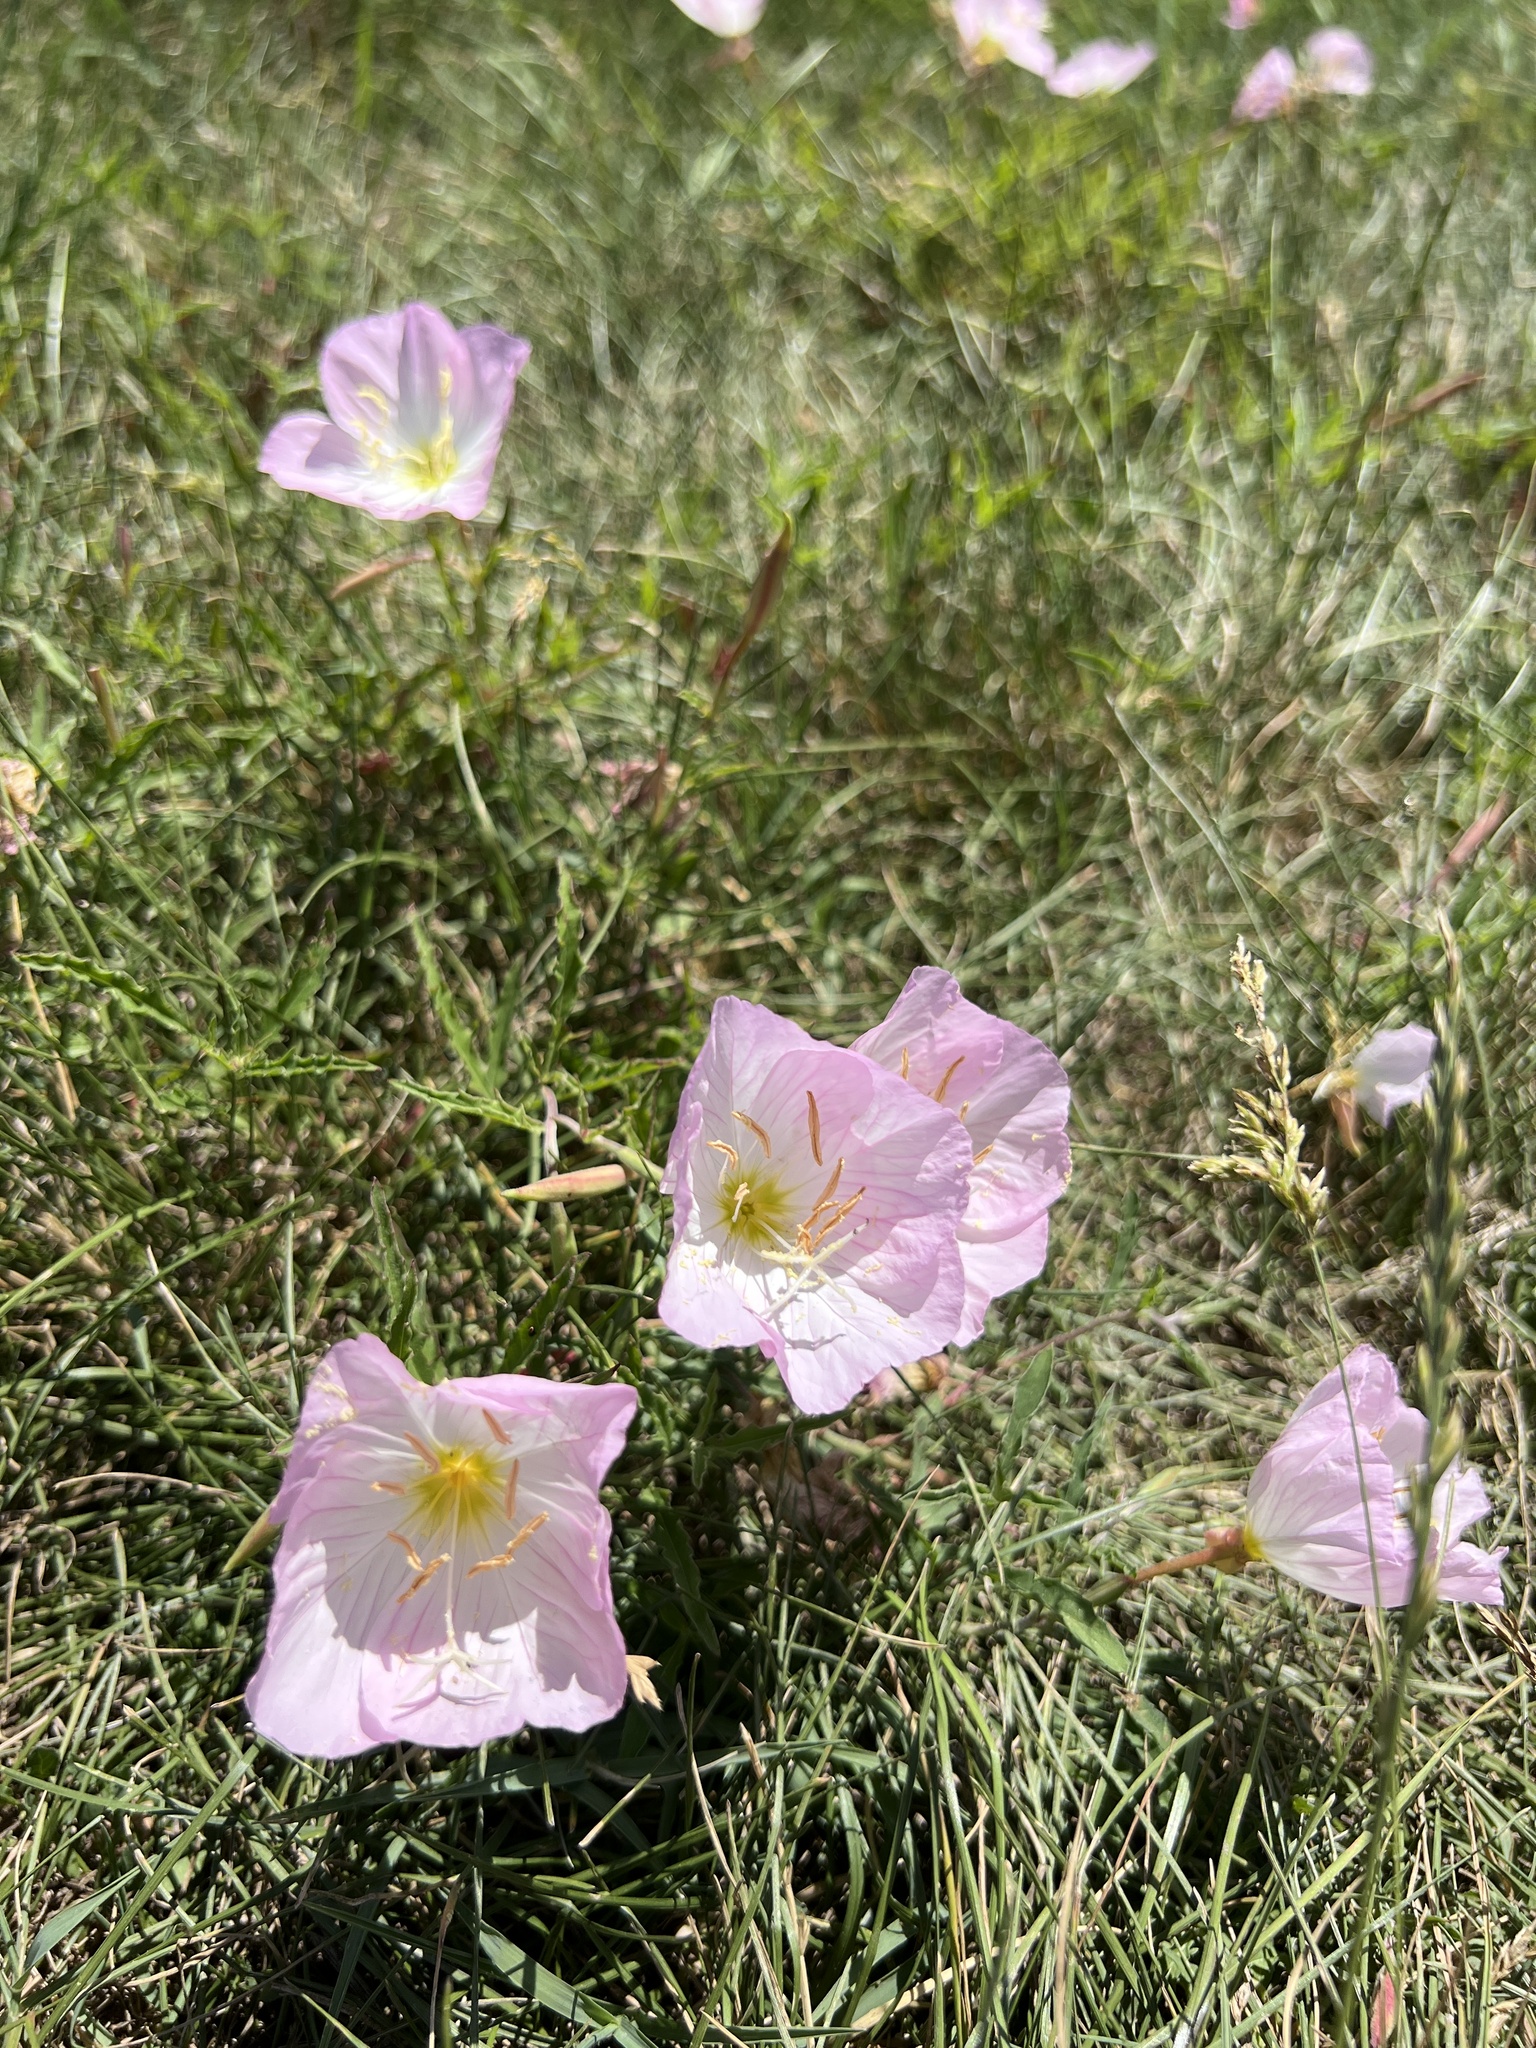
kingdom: Plantae
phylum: Tracheophyta
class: Magnoliopsida
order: Myrtales
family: Onagraceae
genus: Oenothera
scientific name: Oenothera speciosa
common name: White evening-primrose
